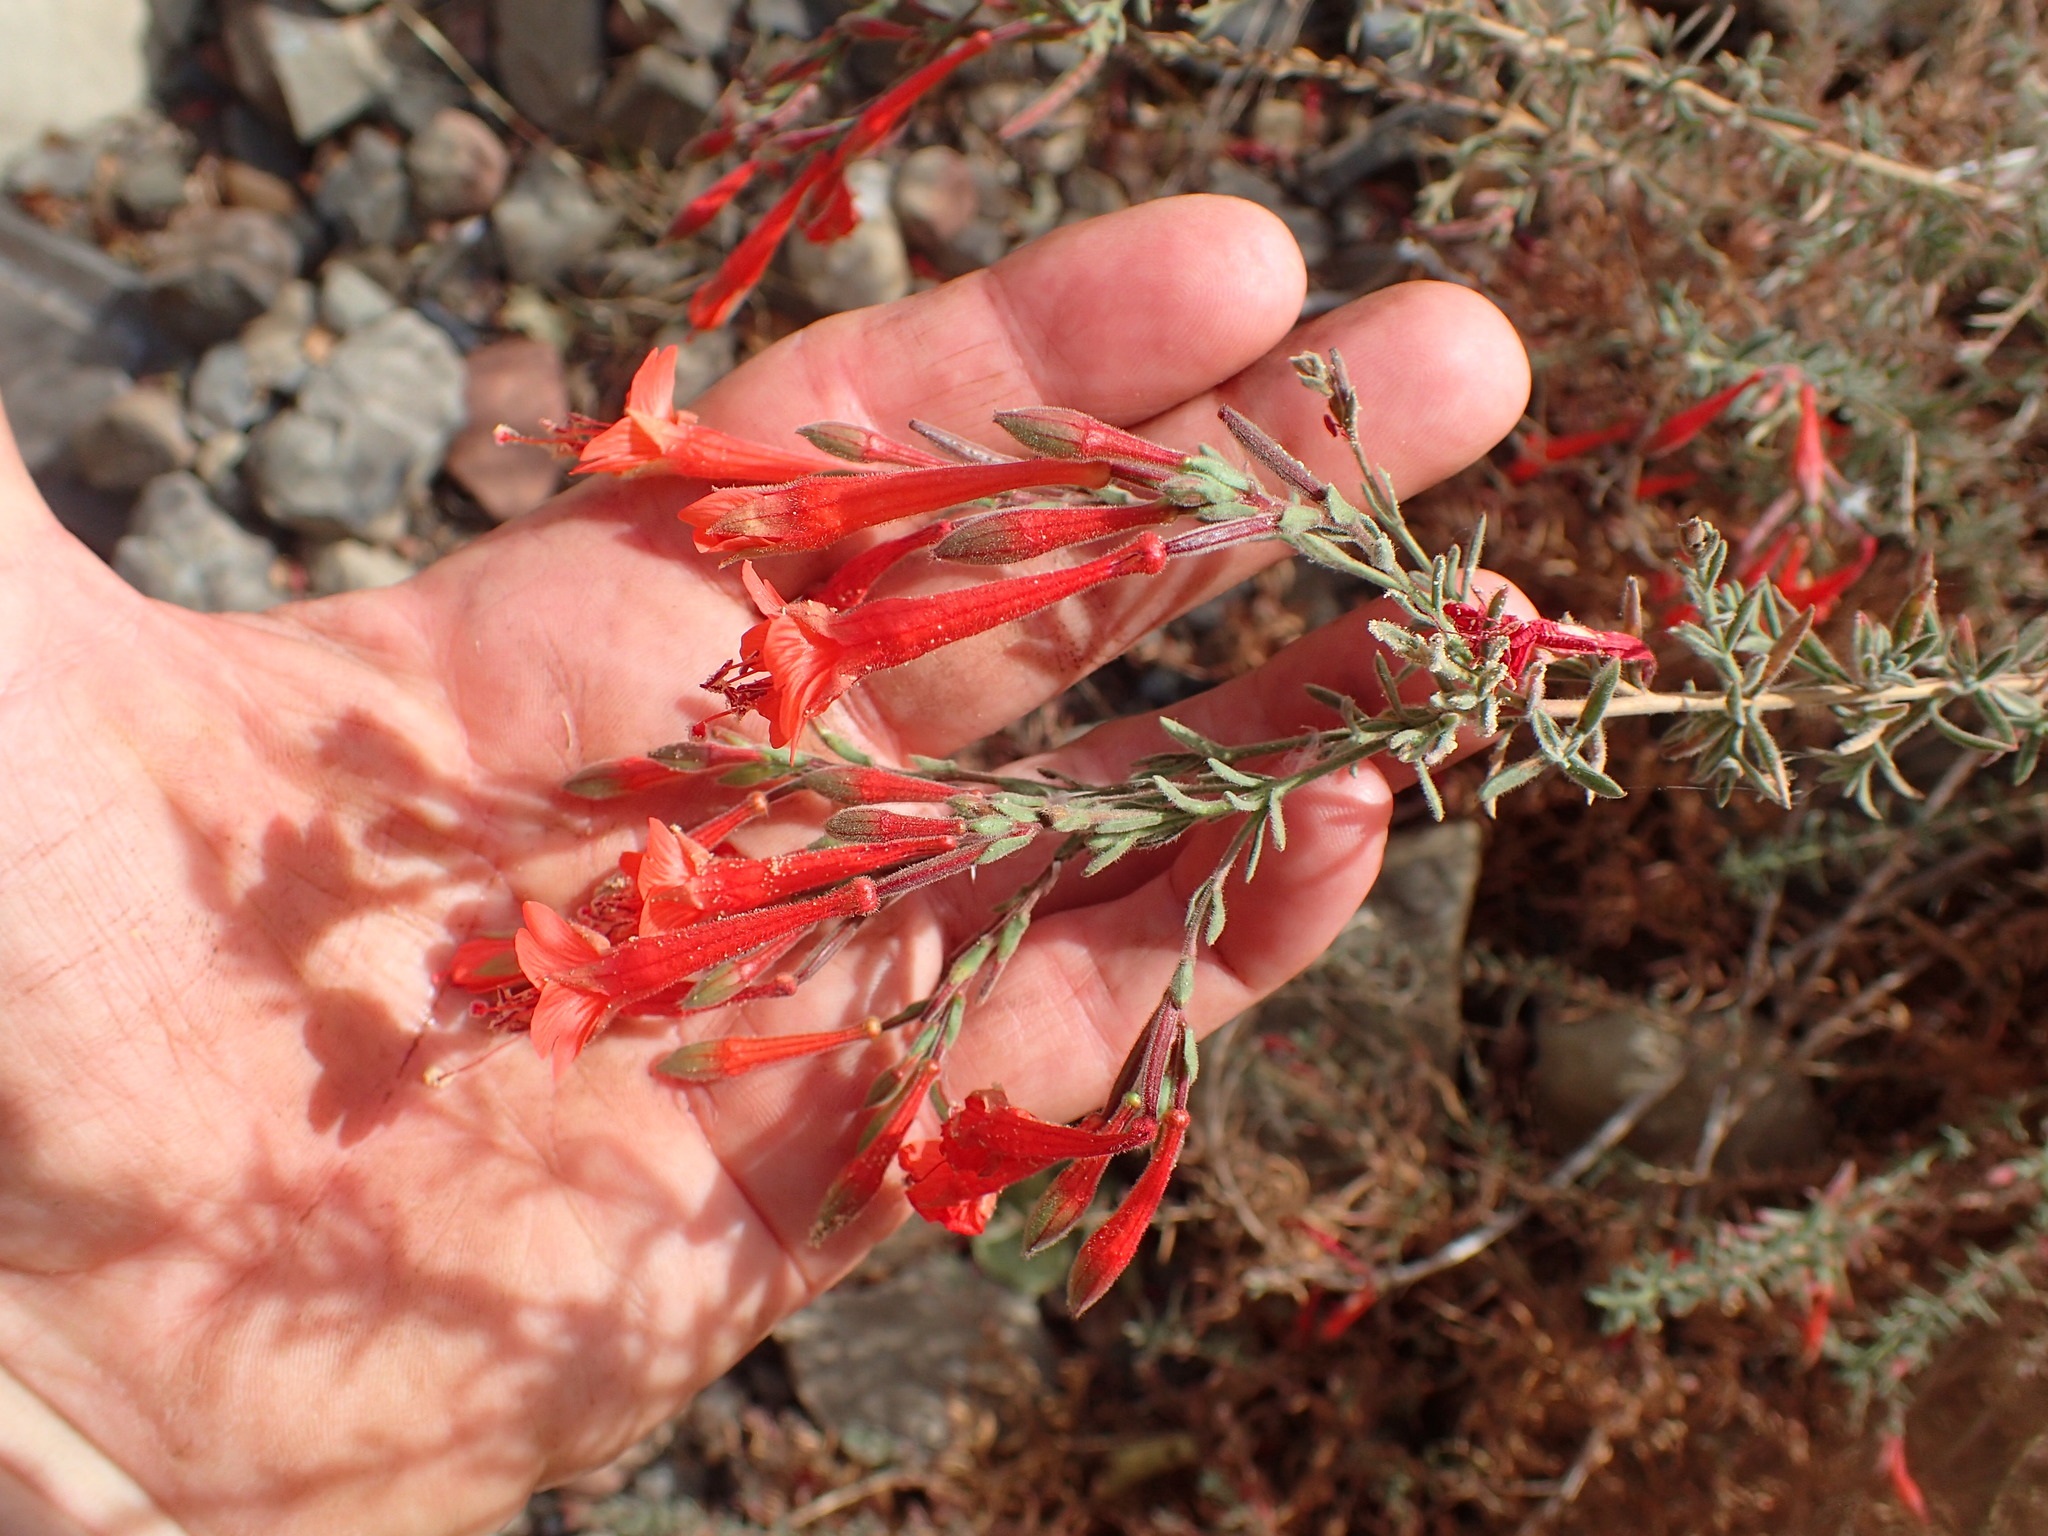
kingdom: Plantae
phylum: Tracheophyta
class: Magnoliopsida
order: Myrtales
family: Onagraceae
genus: Epilobium
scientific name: Epilobium canum
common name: California-fuchsia
